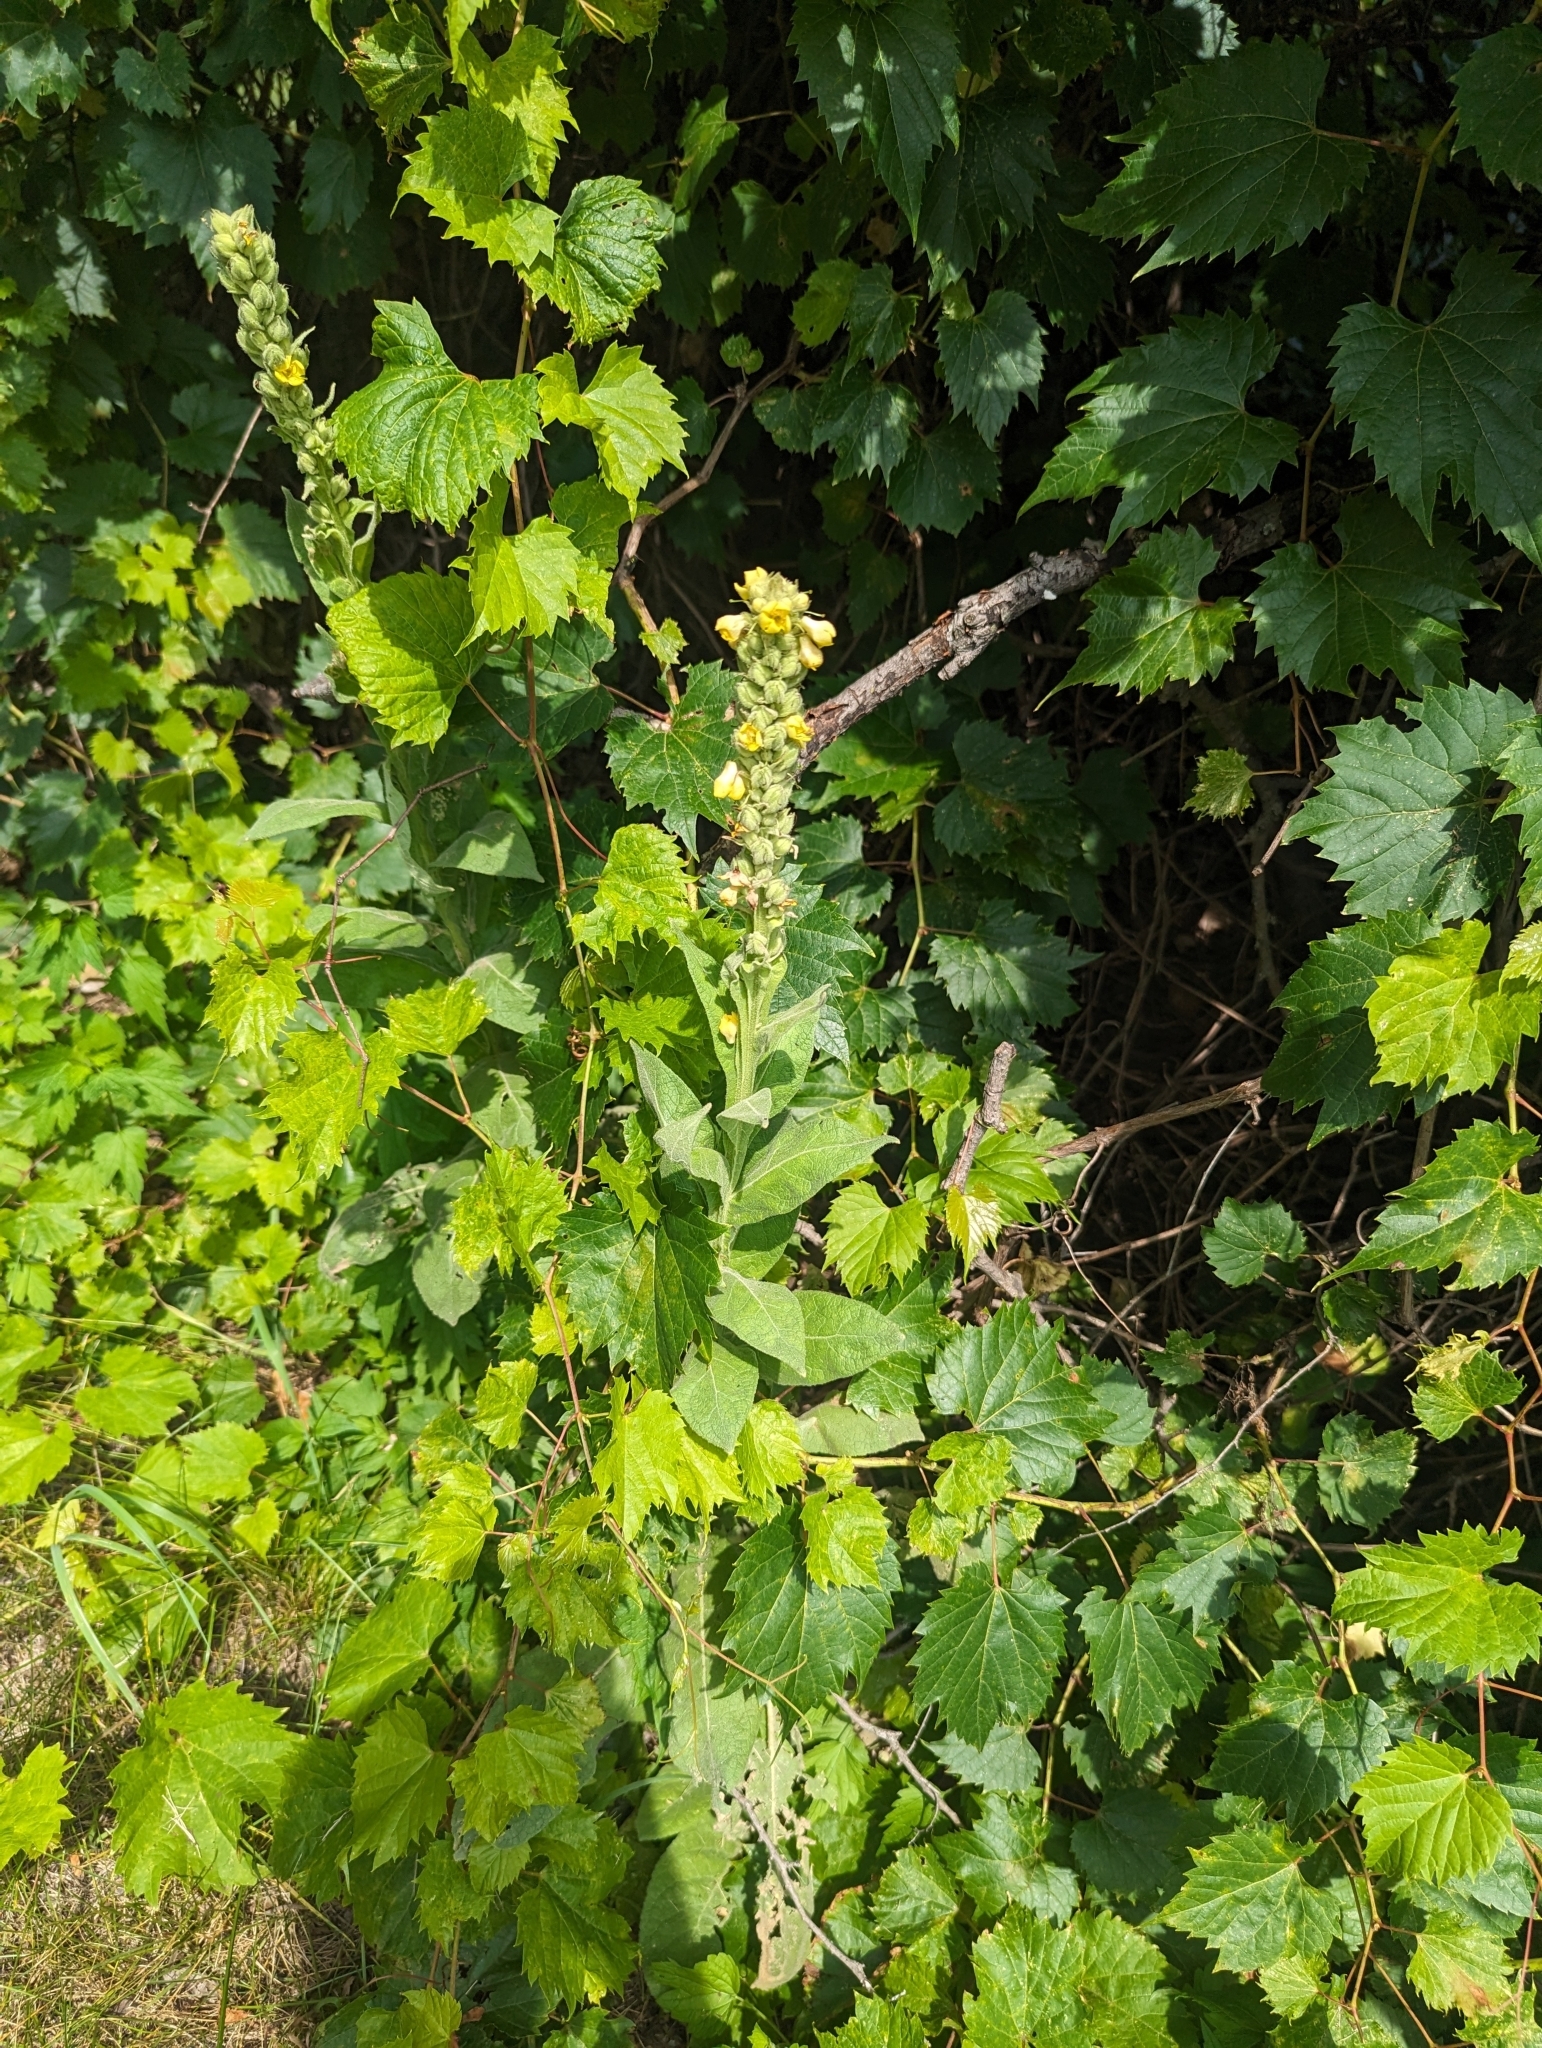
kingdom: Plantae
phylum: Tracheophyta
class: Magnoliopsida
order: Lamiales
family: Scrophulariaceae
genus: Verbascum
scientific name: Verbascum thapsus
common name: Common mullein
